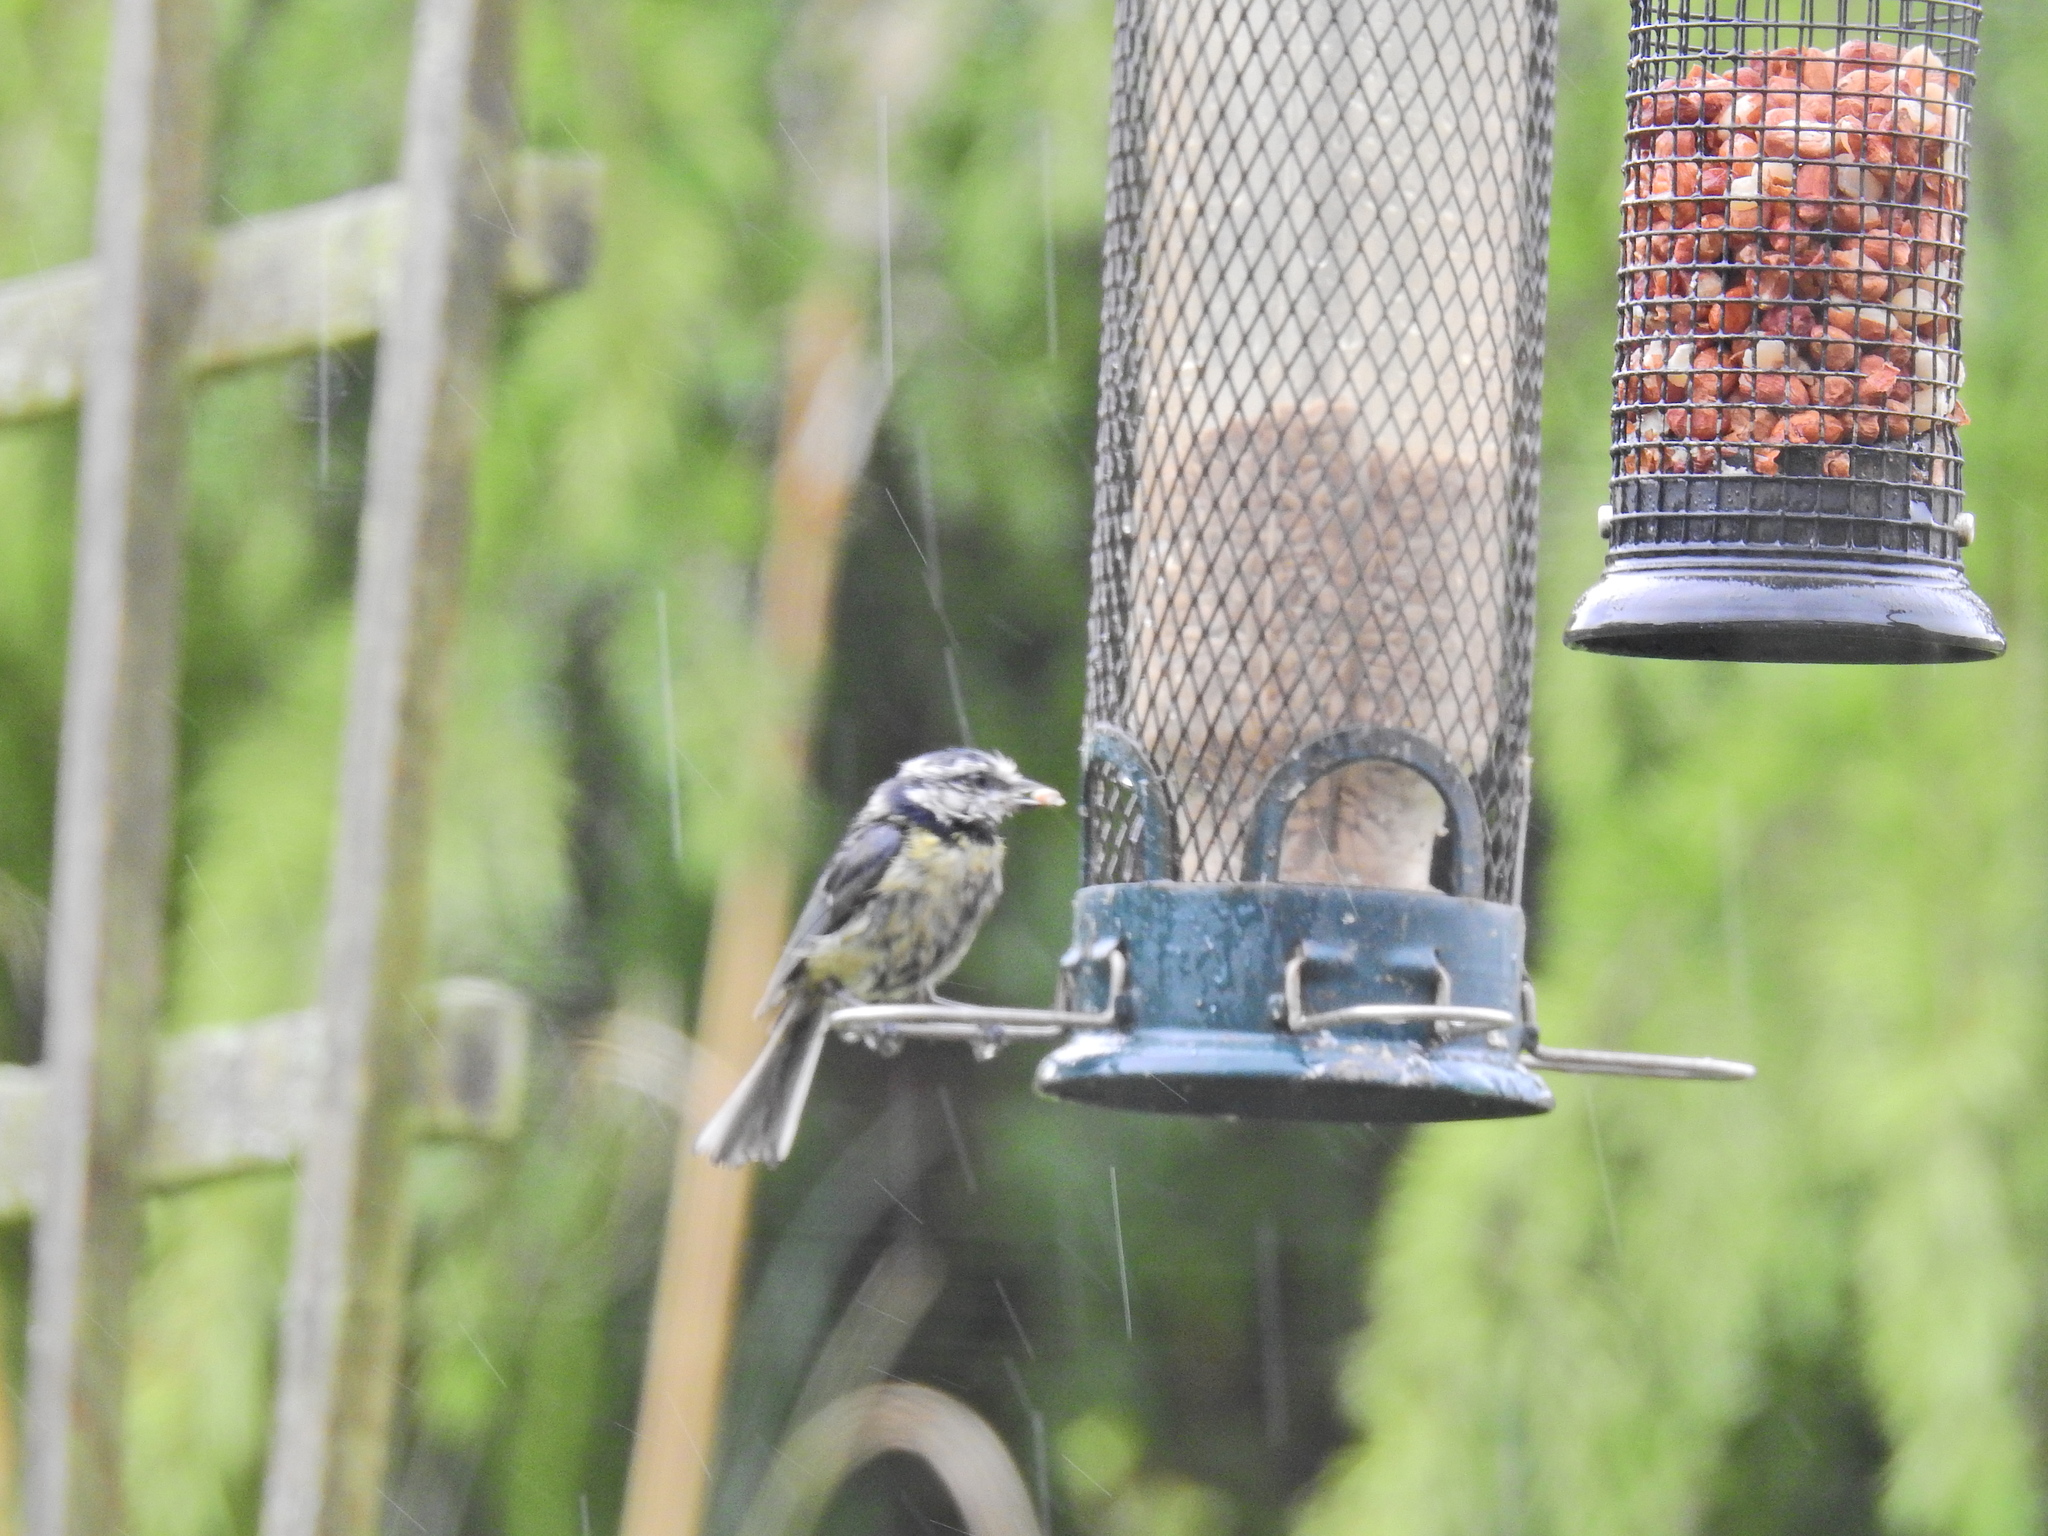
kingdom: Animalia
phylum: Chordata
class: Aves
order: Passeriformes
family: Paridae
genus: Cyanistes
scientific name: Cyanistes caeruleus
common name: Eurasian blue tit
